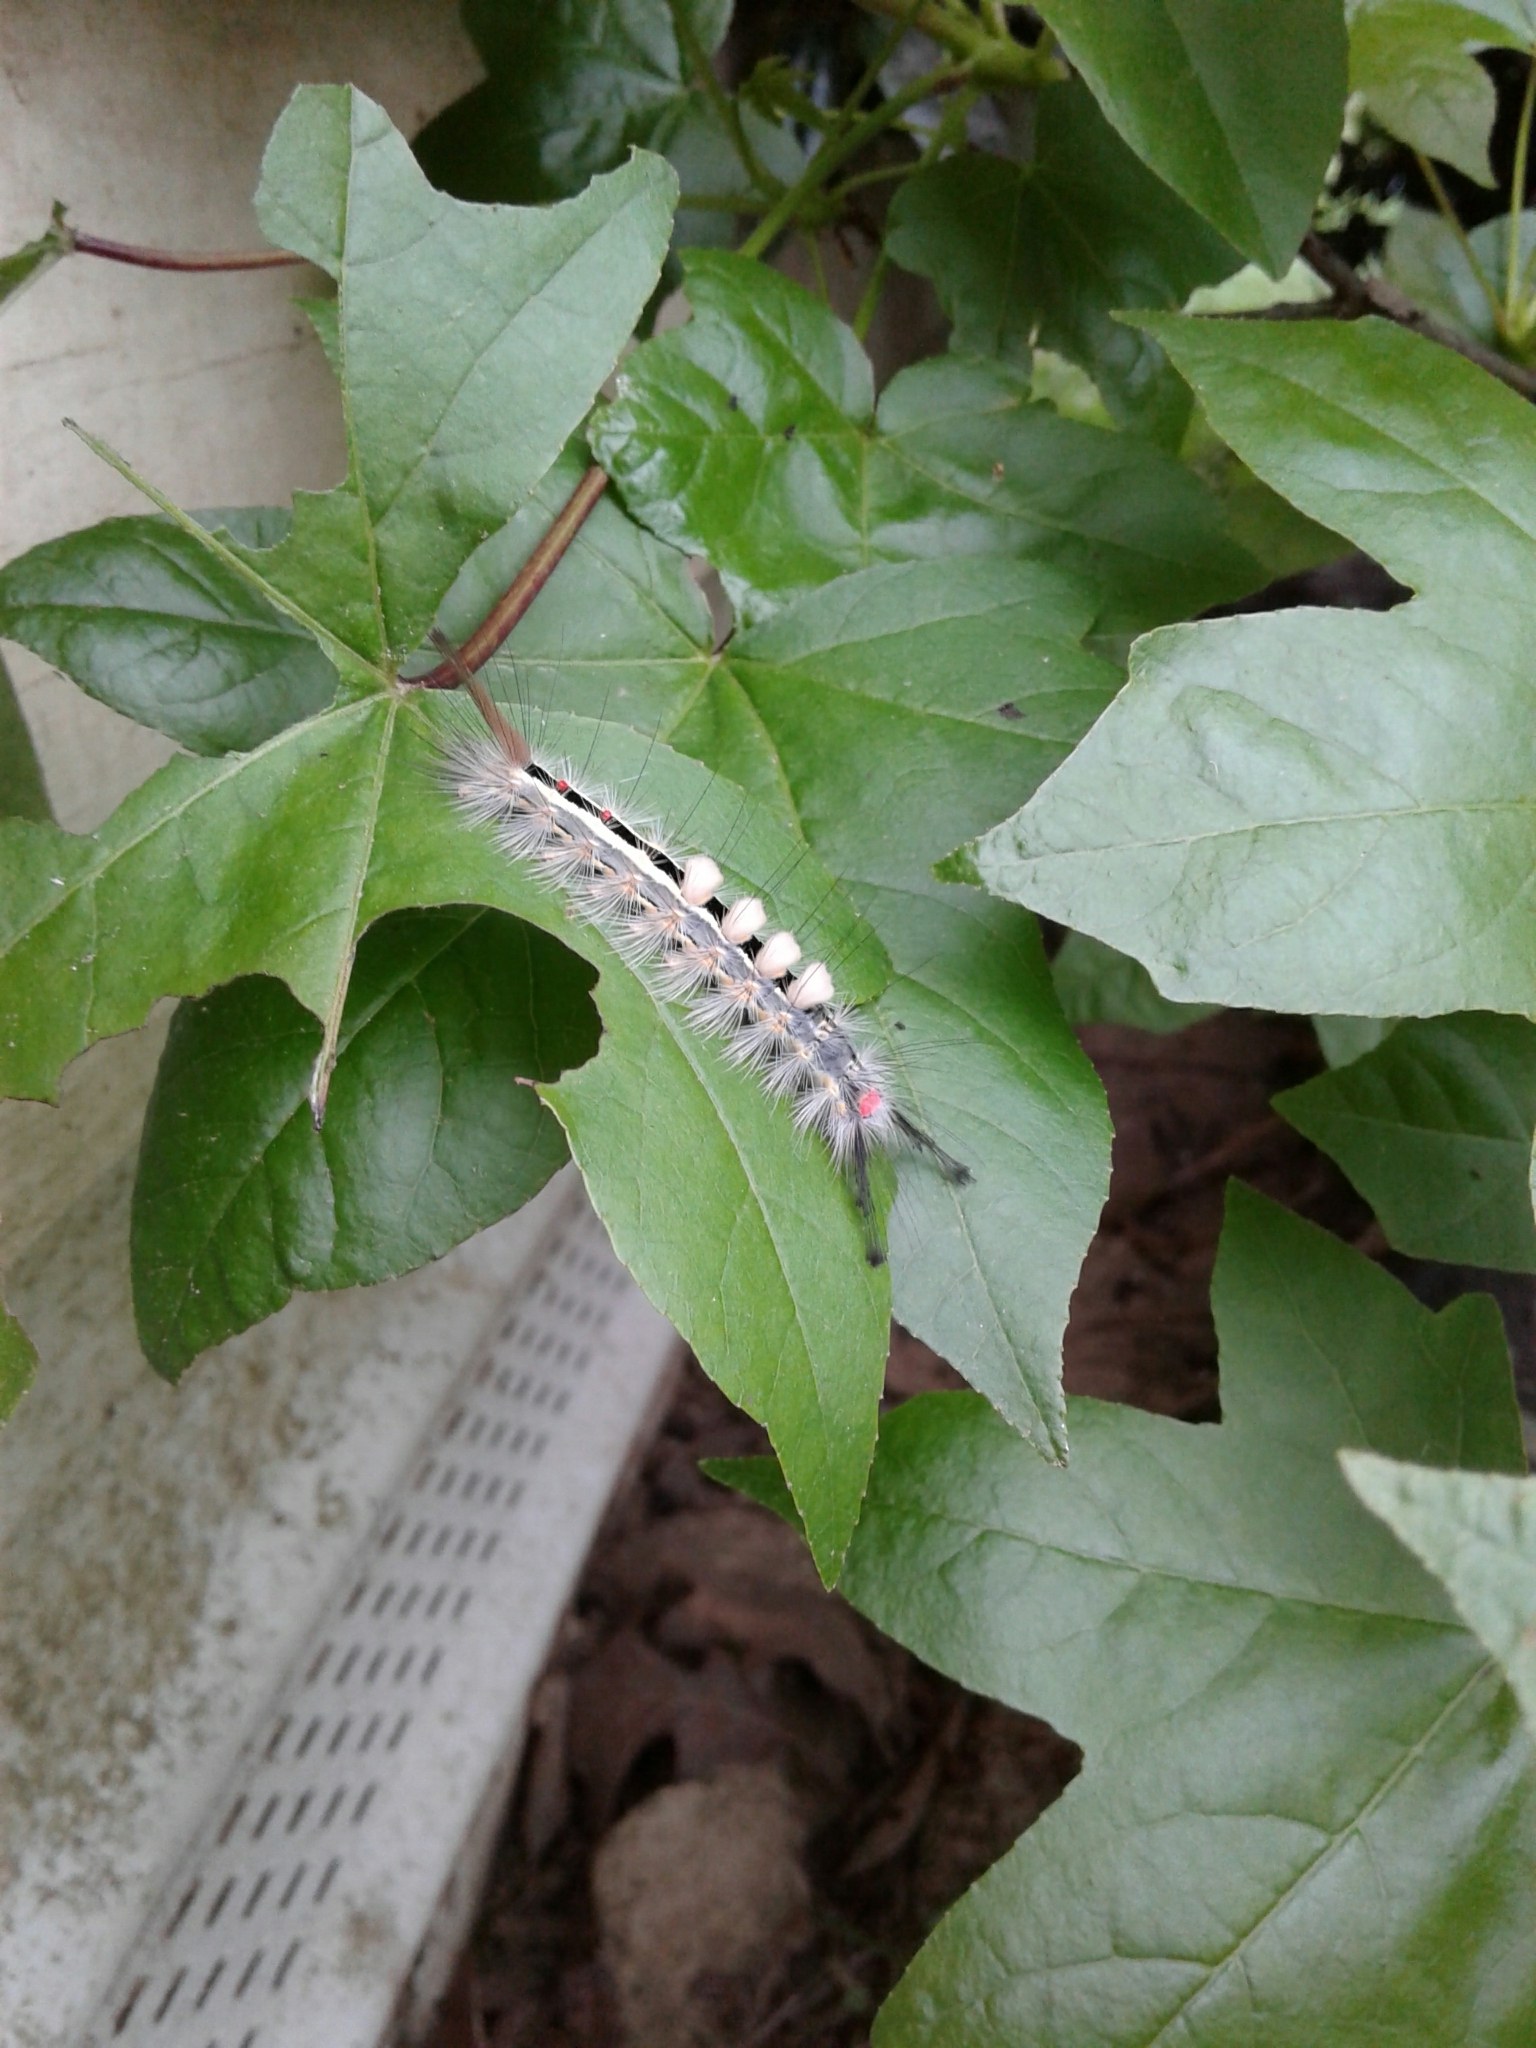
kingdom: Animalia
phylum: Arthropoda
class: Insecta
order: Lepidoptera
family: Erebidae
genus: Orgyia
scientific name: Orgyia leucostigma
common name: White-marked tussock moth
